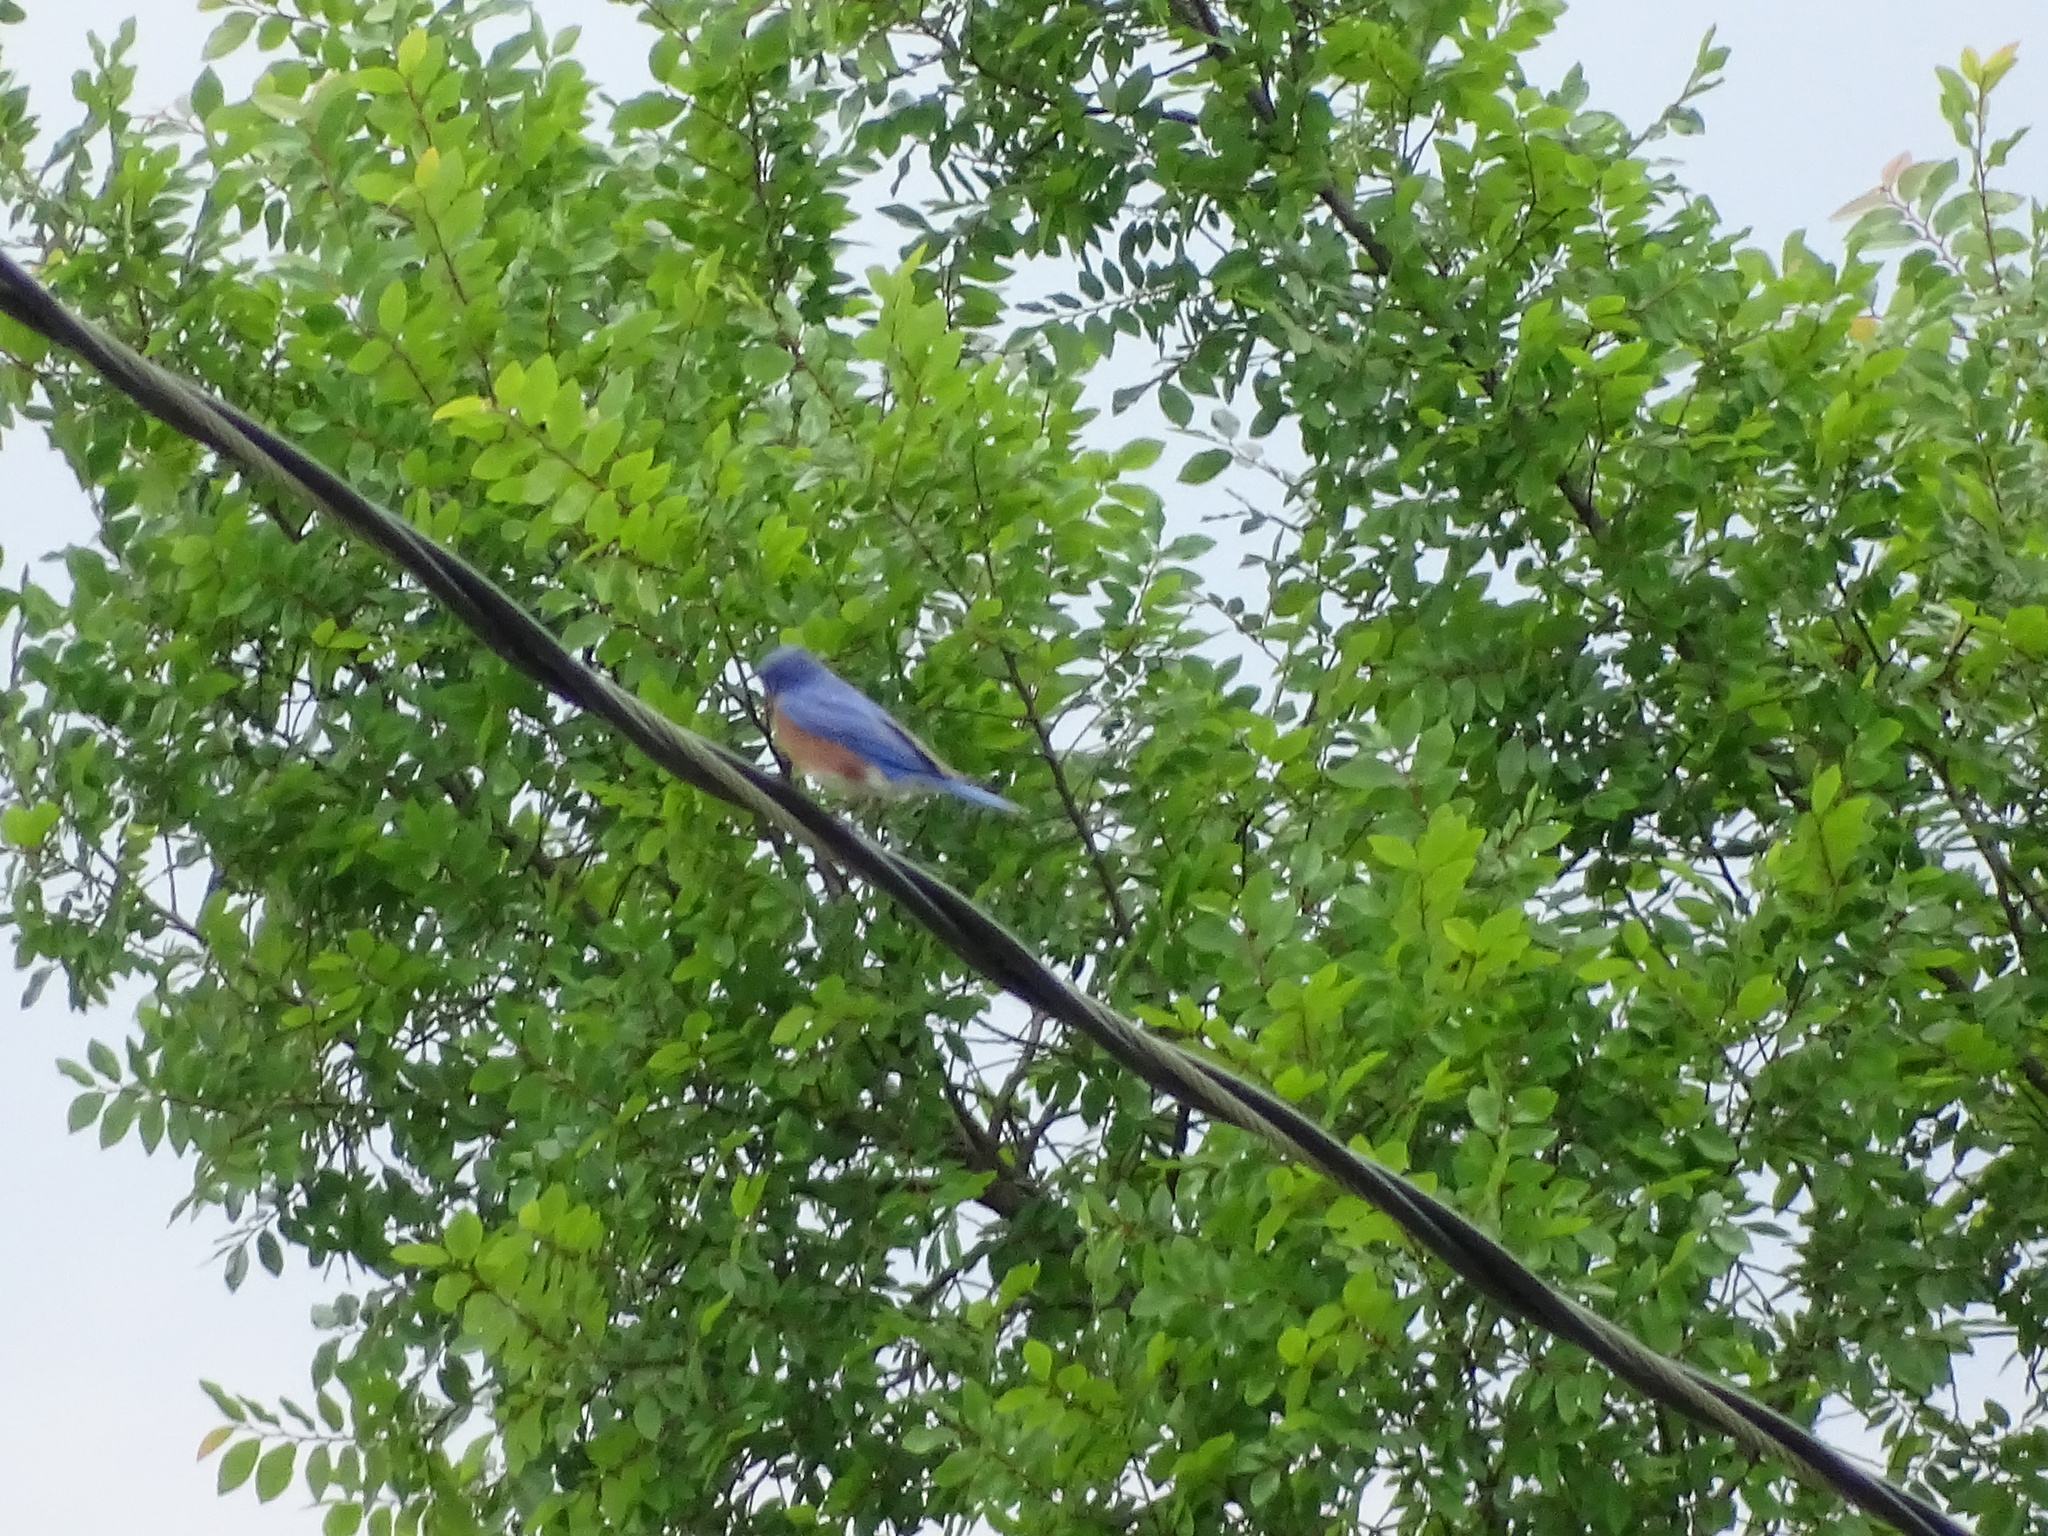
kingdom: Animalia
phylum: Chordata
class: Aves
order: Passeriformes
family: Turdidae
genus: Sialia
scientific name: Sialia sialis
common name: Eastern bluebird
